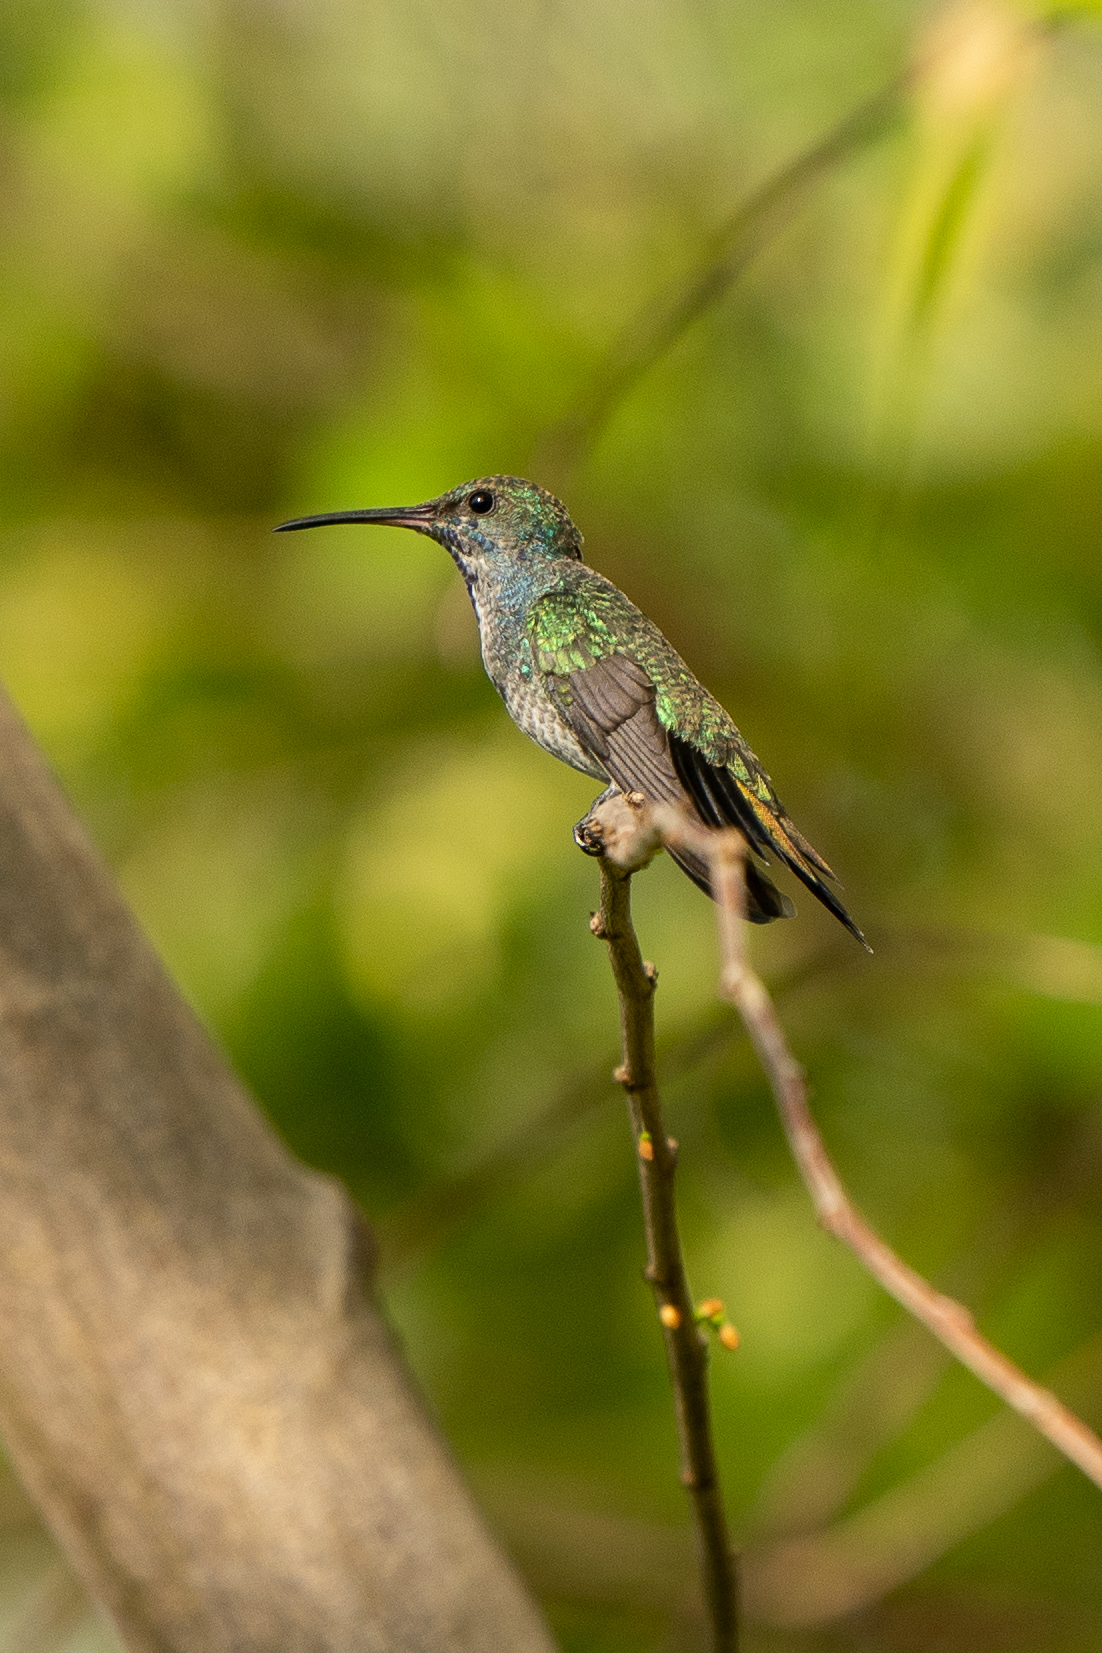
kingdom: Animalia
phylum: Chordata
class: Aves
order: Apodiformes
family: Trochilidae
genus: Anthracothorax
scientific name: Anthracothorax nigricollis
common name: Black-throated mango
